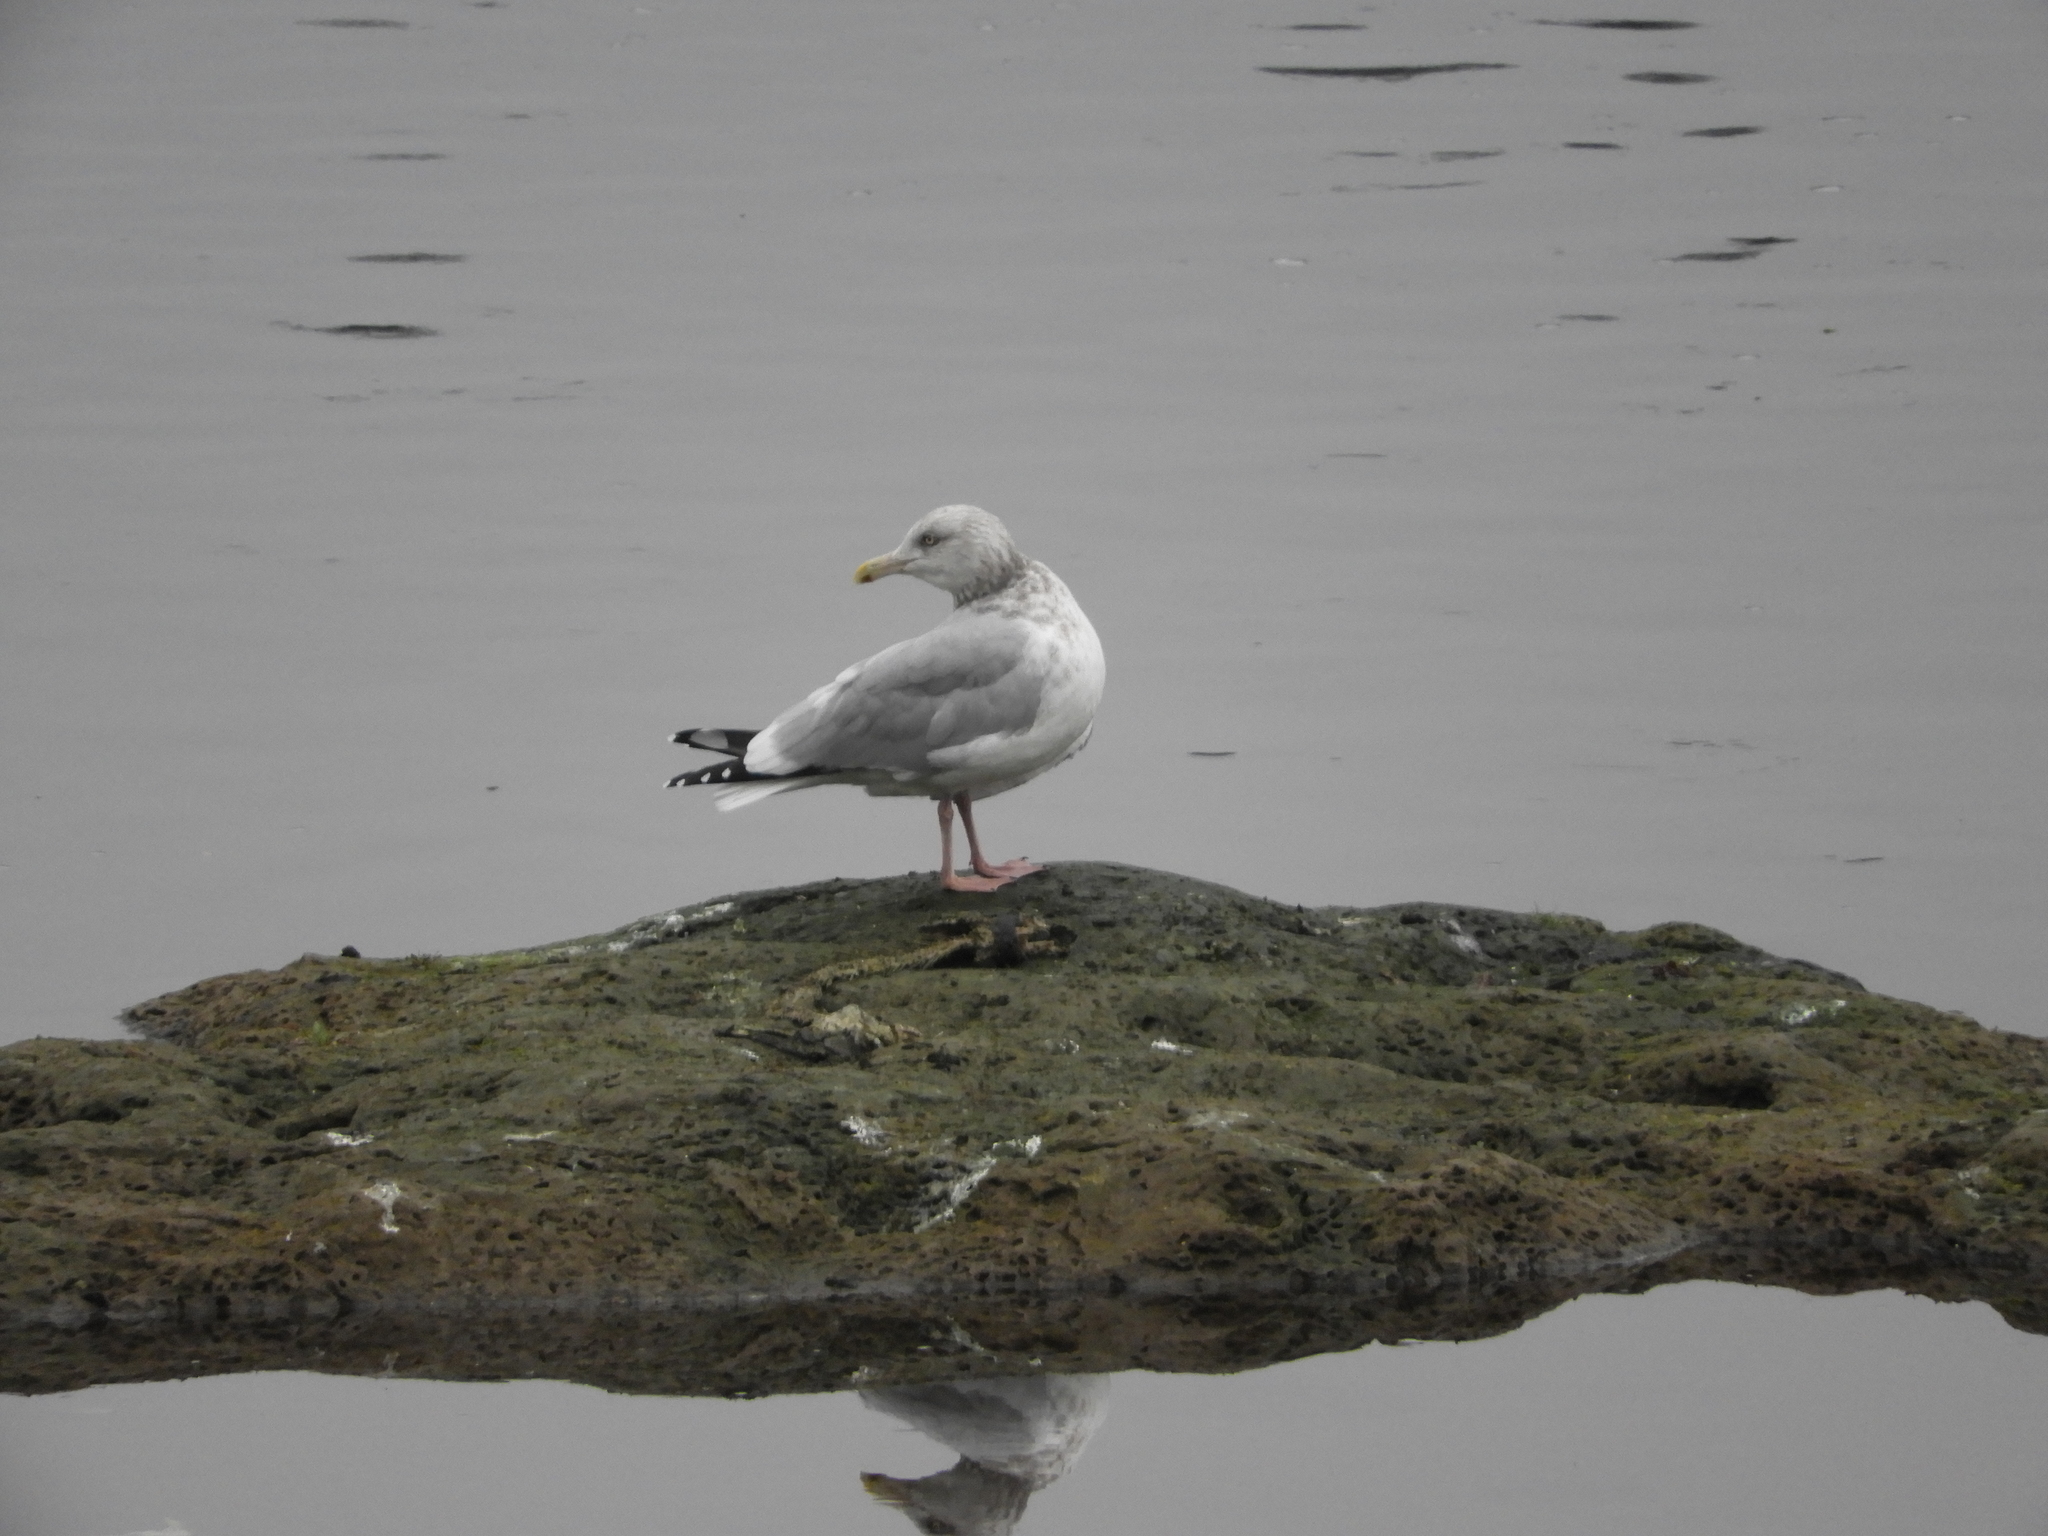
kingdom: Animalia
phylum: Chordata
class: Aves
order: Charadriiformes
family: Laridae
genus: Larus
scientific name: Larus argentatus
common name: Herring gull
